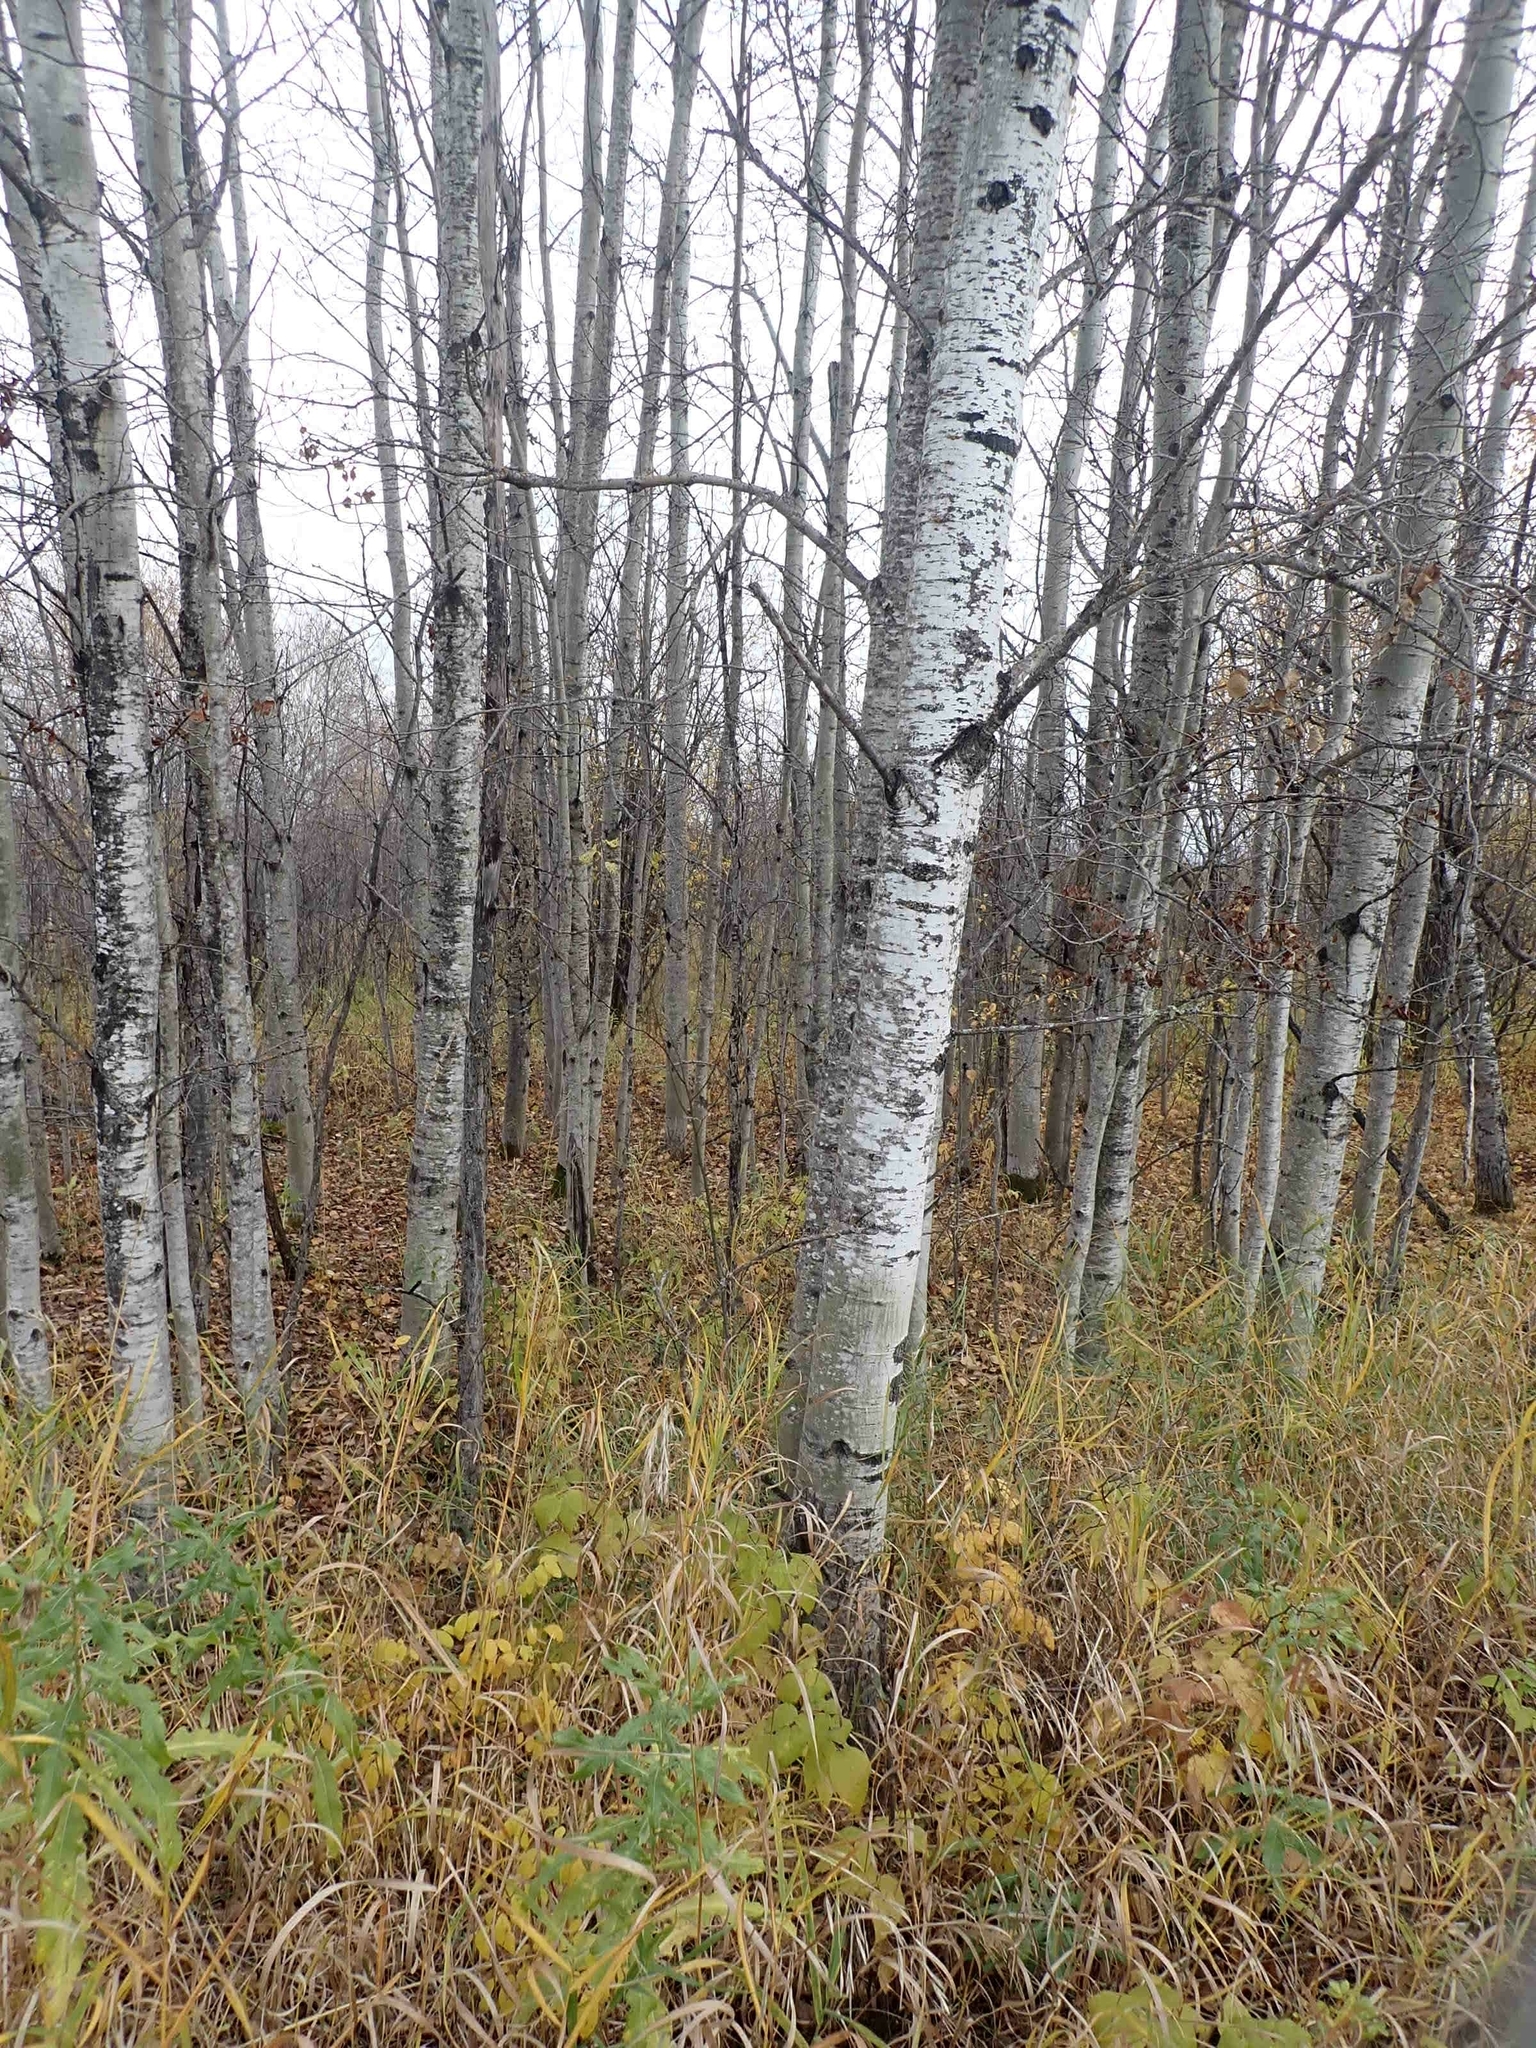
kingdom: Plantae
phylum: Tracheophyta
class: Magnoliopsida
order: Malpighiales
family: Salicaceae
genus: Populus
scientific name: Populus tremuloides
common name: Quaking aspen
